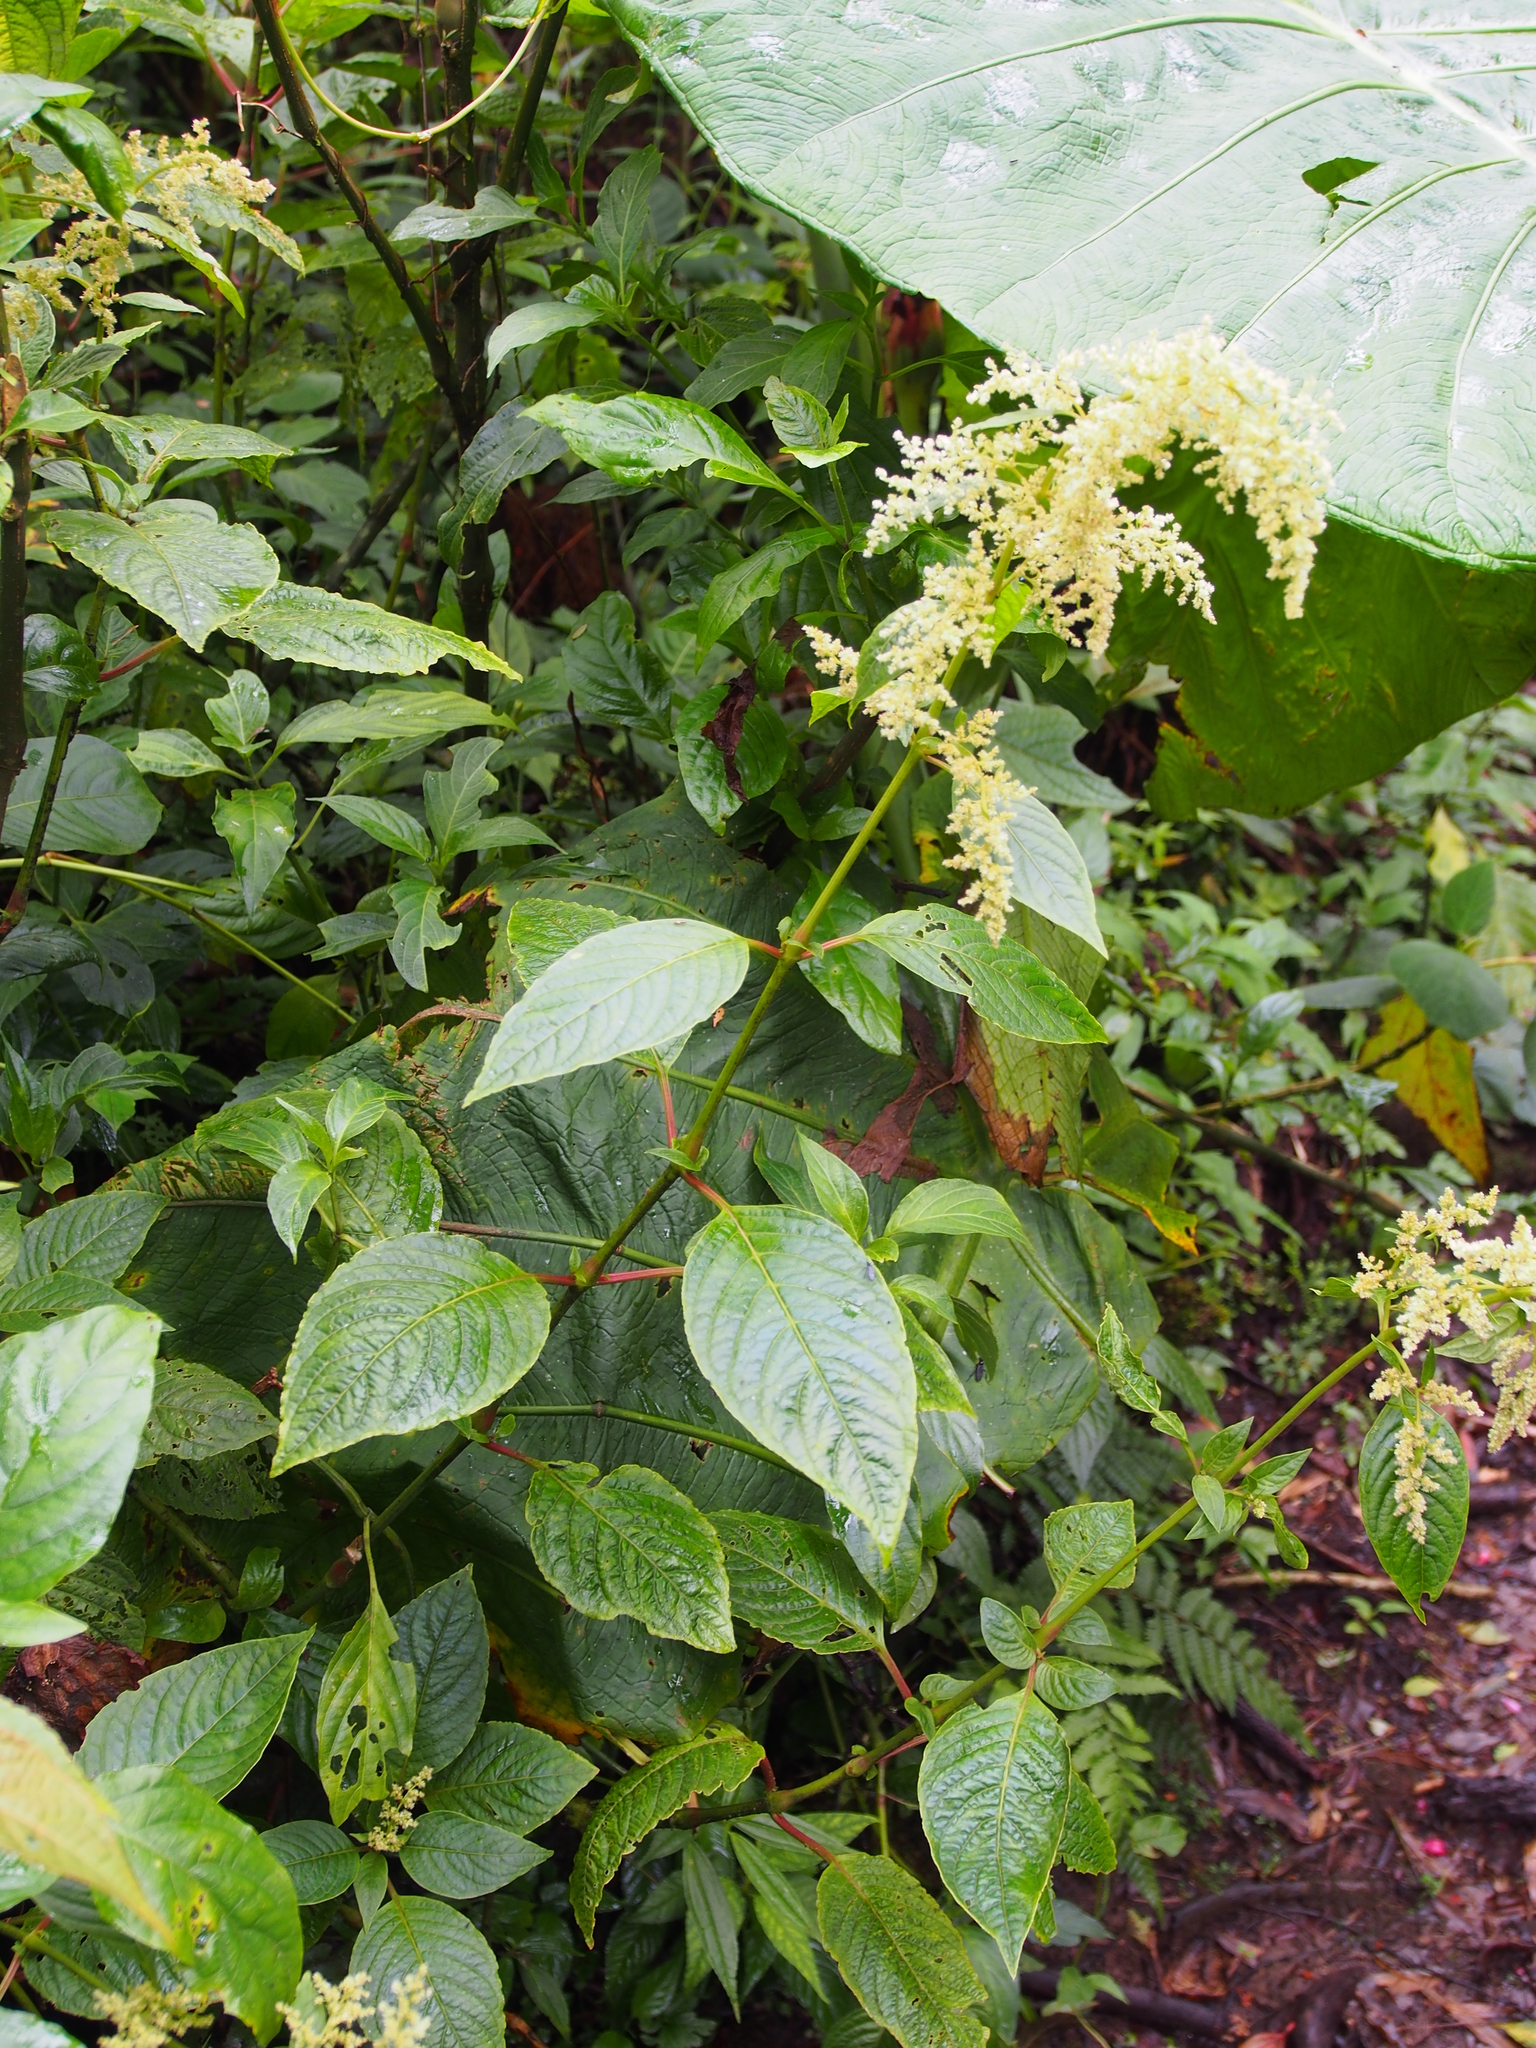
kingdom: Plantae
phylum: Tracheophyta
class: Magnoliopsida
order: Caryophyllales
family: Amaranthaceae
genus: Iresine
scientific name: Iresine diffusa
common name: Juba's-bush
